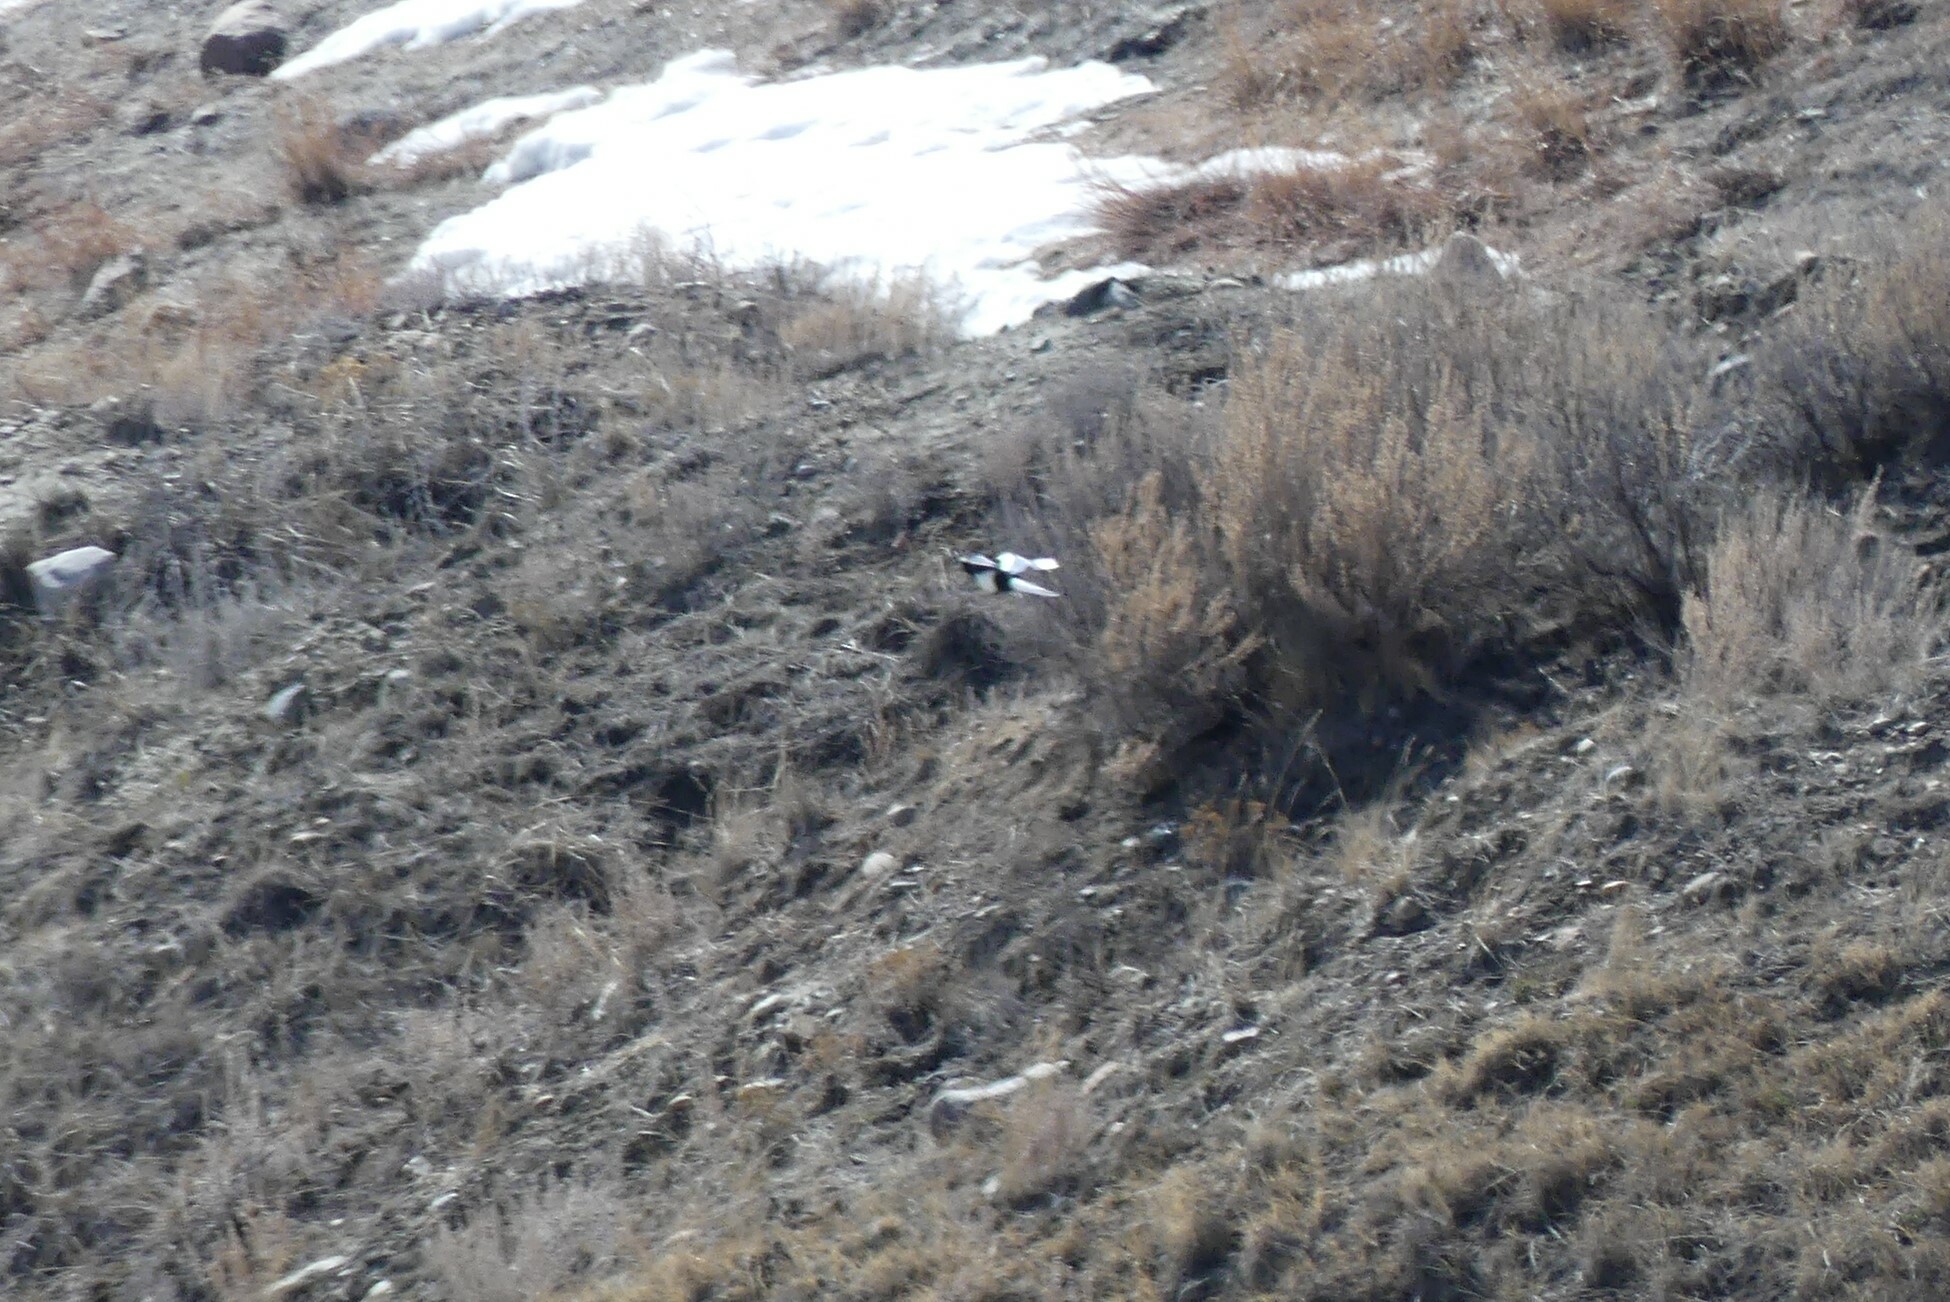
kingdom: Animalia
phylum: Chordata
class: Aves
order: Passeriformes
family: Corvidae
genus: Pica
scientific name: Pica hudsonia
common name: Black-billed magpie
